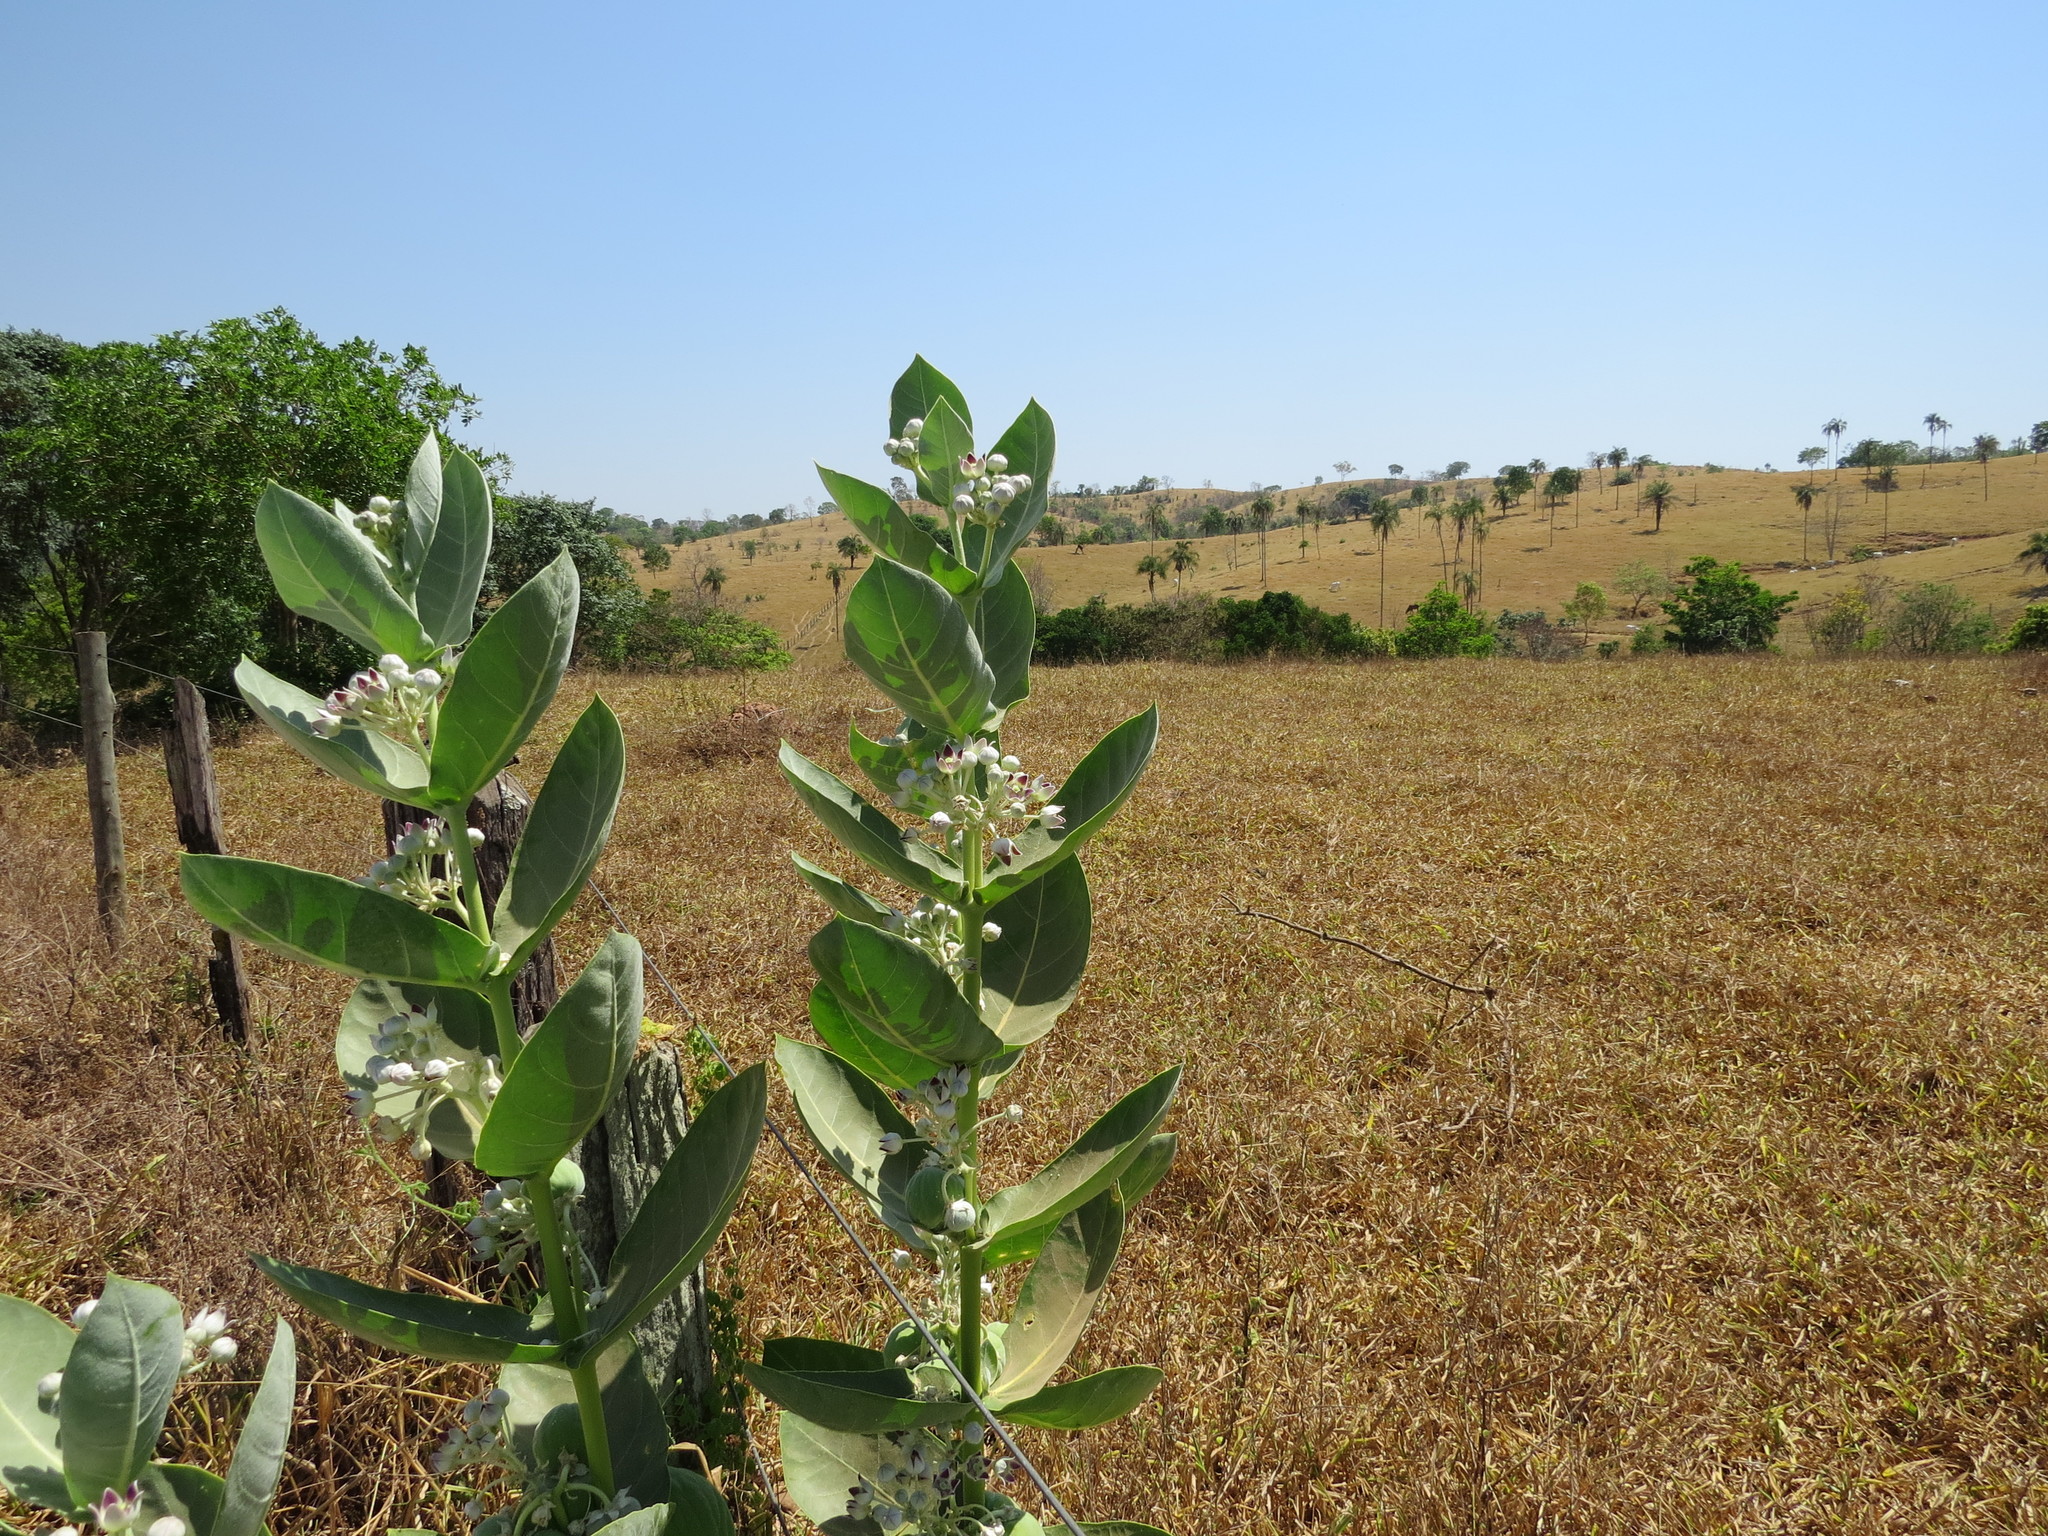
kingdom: Plantae
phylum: Tracheophyta
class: Magnoliopsida
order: Gentianales
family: Apocynaceae
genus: Calotropis
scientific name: Calotropis procera
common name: Roostertree
